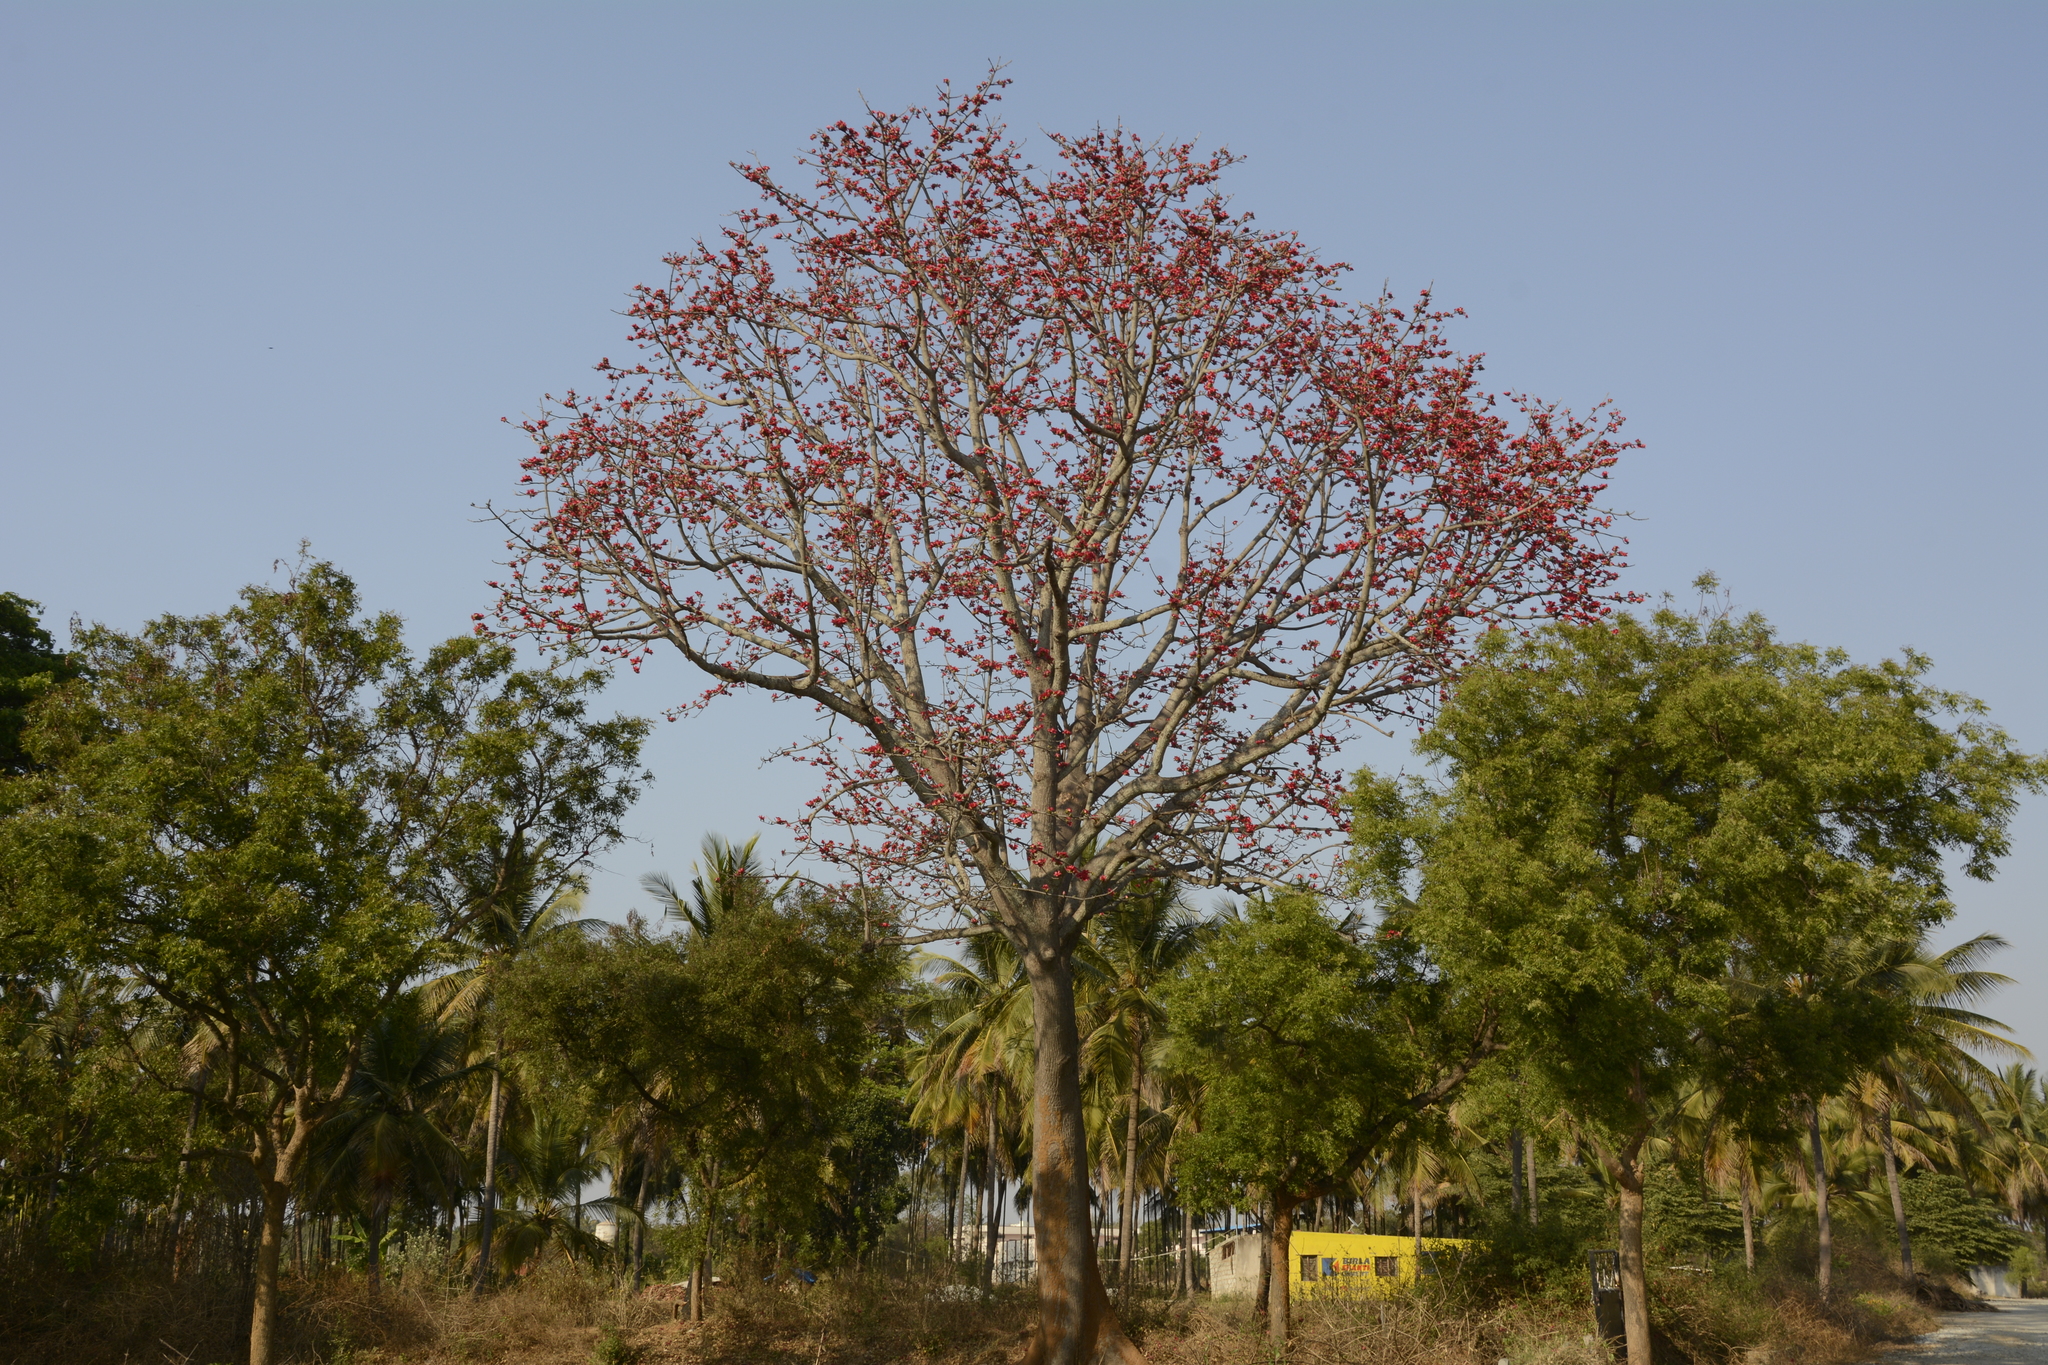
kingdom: Plantae
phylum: Tracheophyta
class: Magnoliopsida
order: Malvales
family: Malvaceae
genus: Bombax
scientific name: Bombax ceiba
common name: Northern-cottonwood
